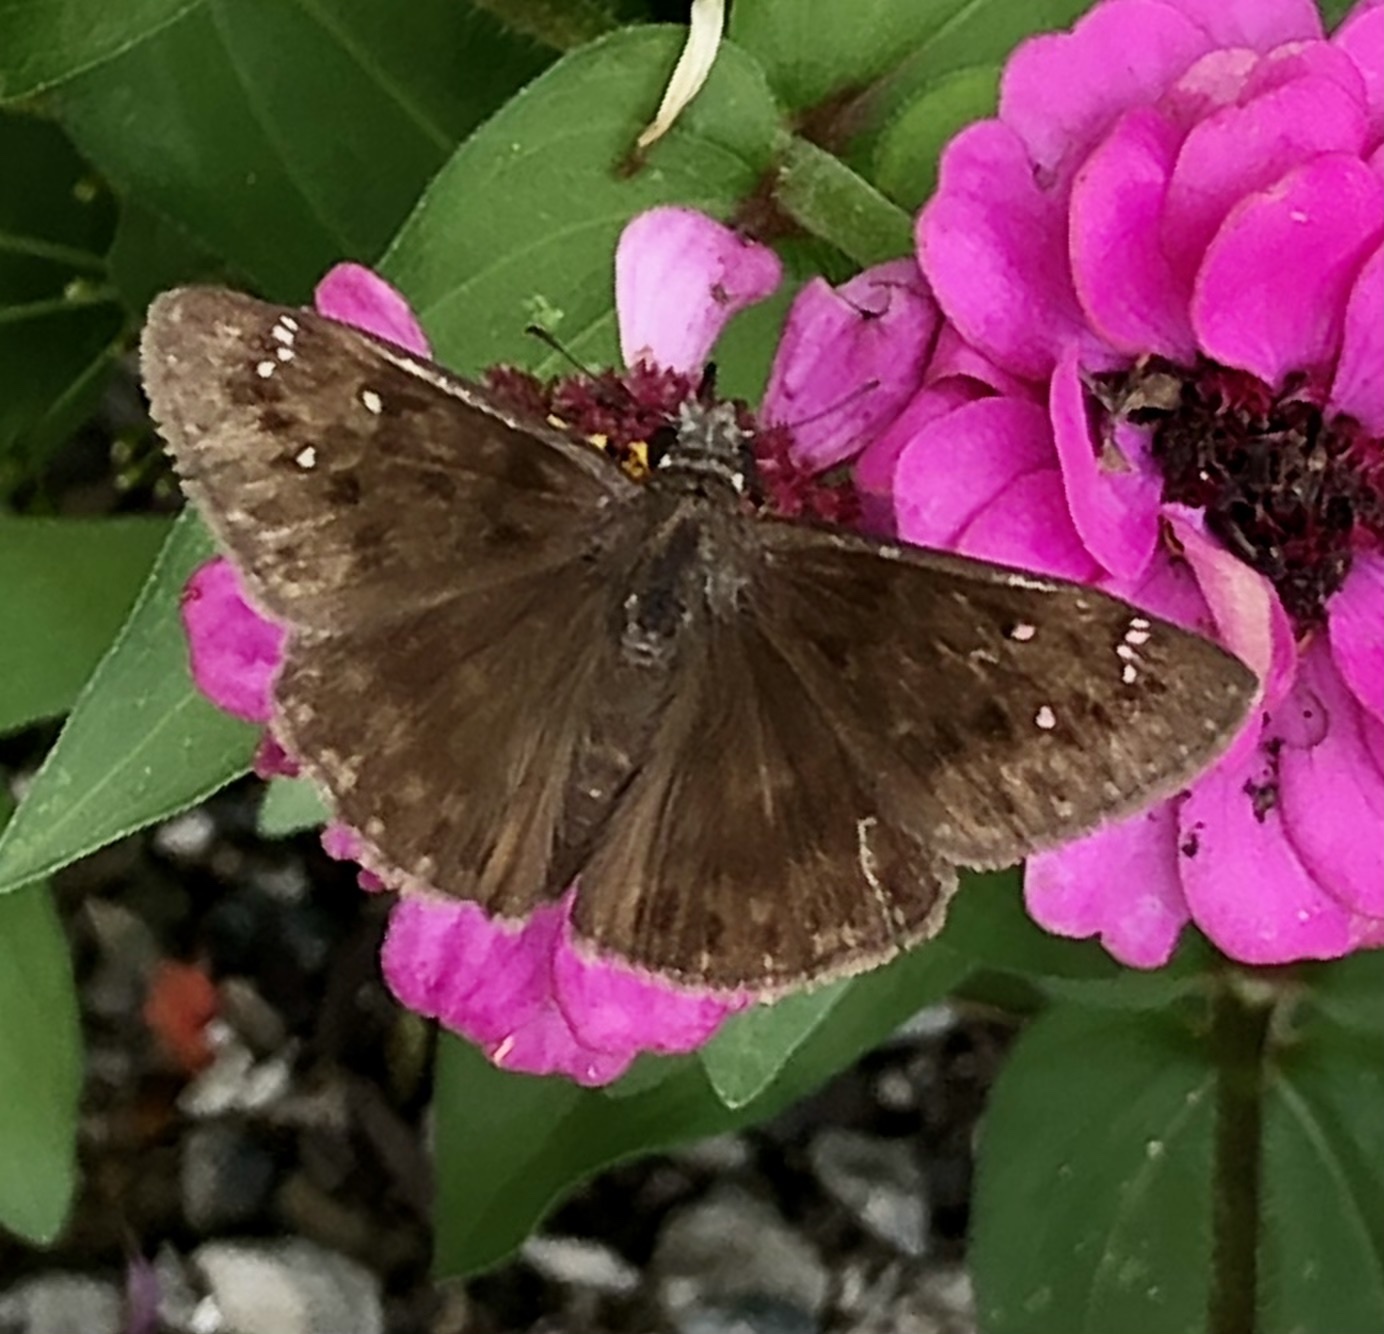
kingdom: Animalia
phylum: Arthropoda
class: Insecta
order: Lepidoptera
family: Hesperiidae
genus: Erynnis
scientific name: Erynnis horatius
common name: Horace's duskywing
